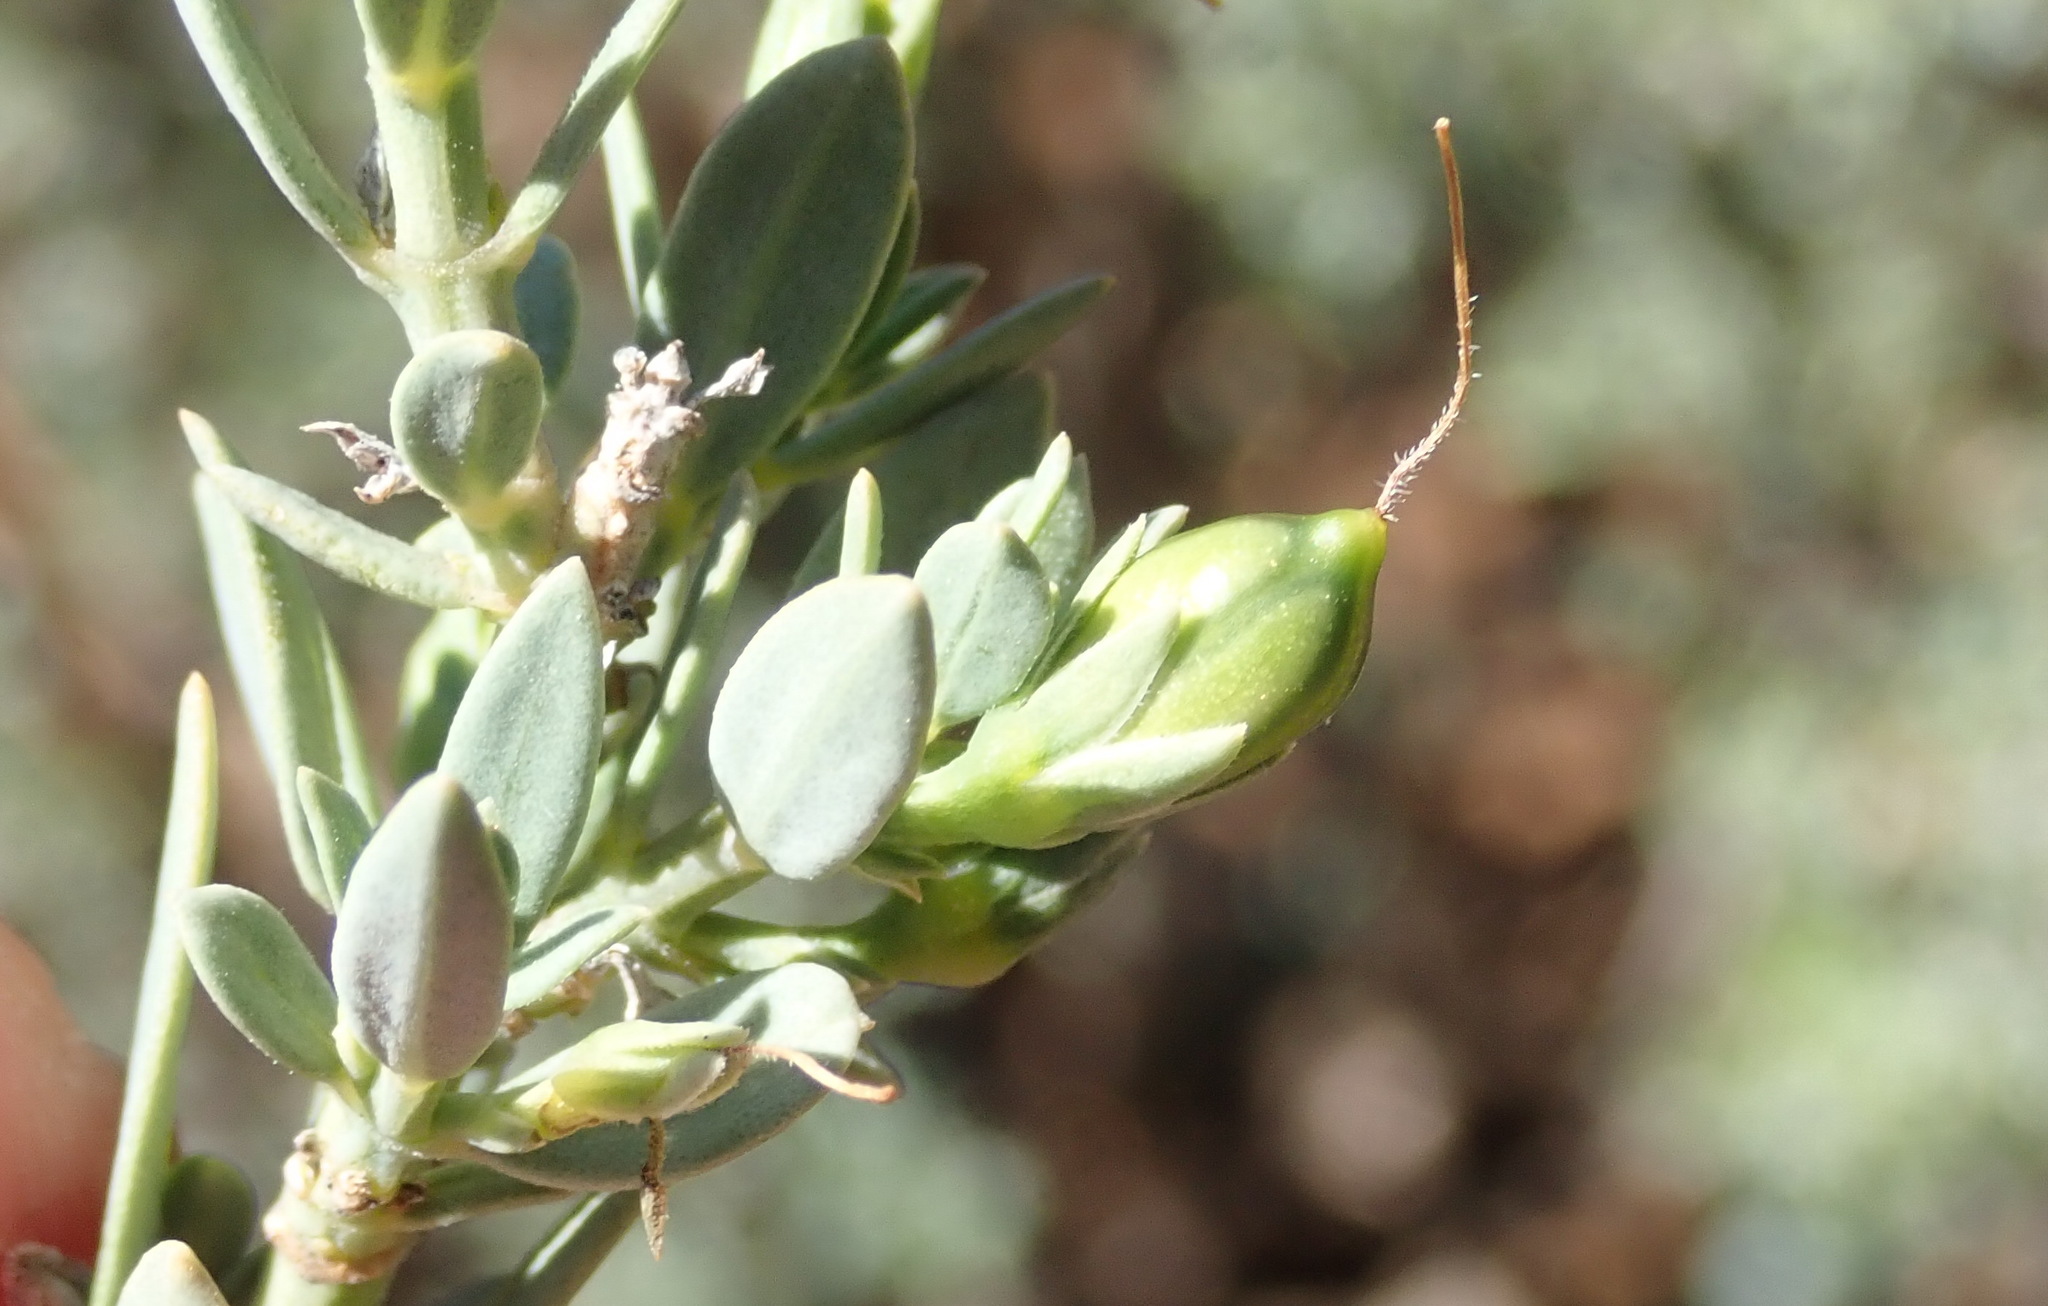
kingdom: Plantae
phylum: Tracheophyta
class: Magnoliopsida
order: Lamiales
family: Acanthaceae
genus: Pogonospermum
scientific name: Pogonospermum
